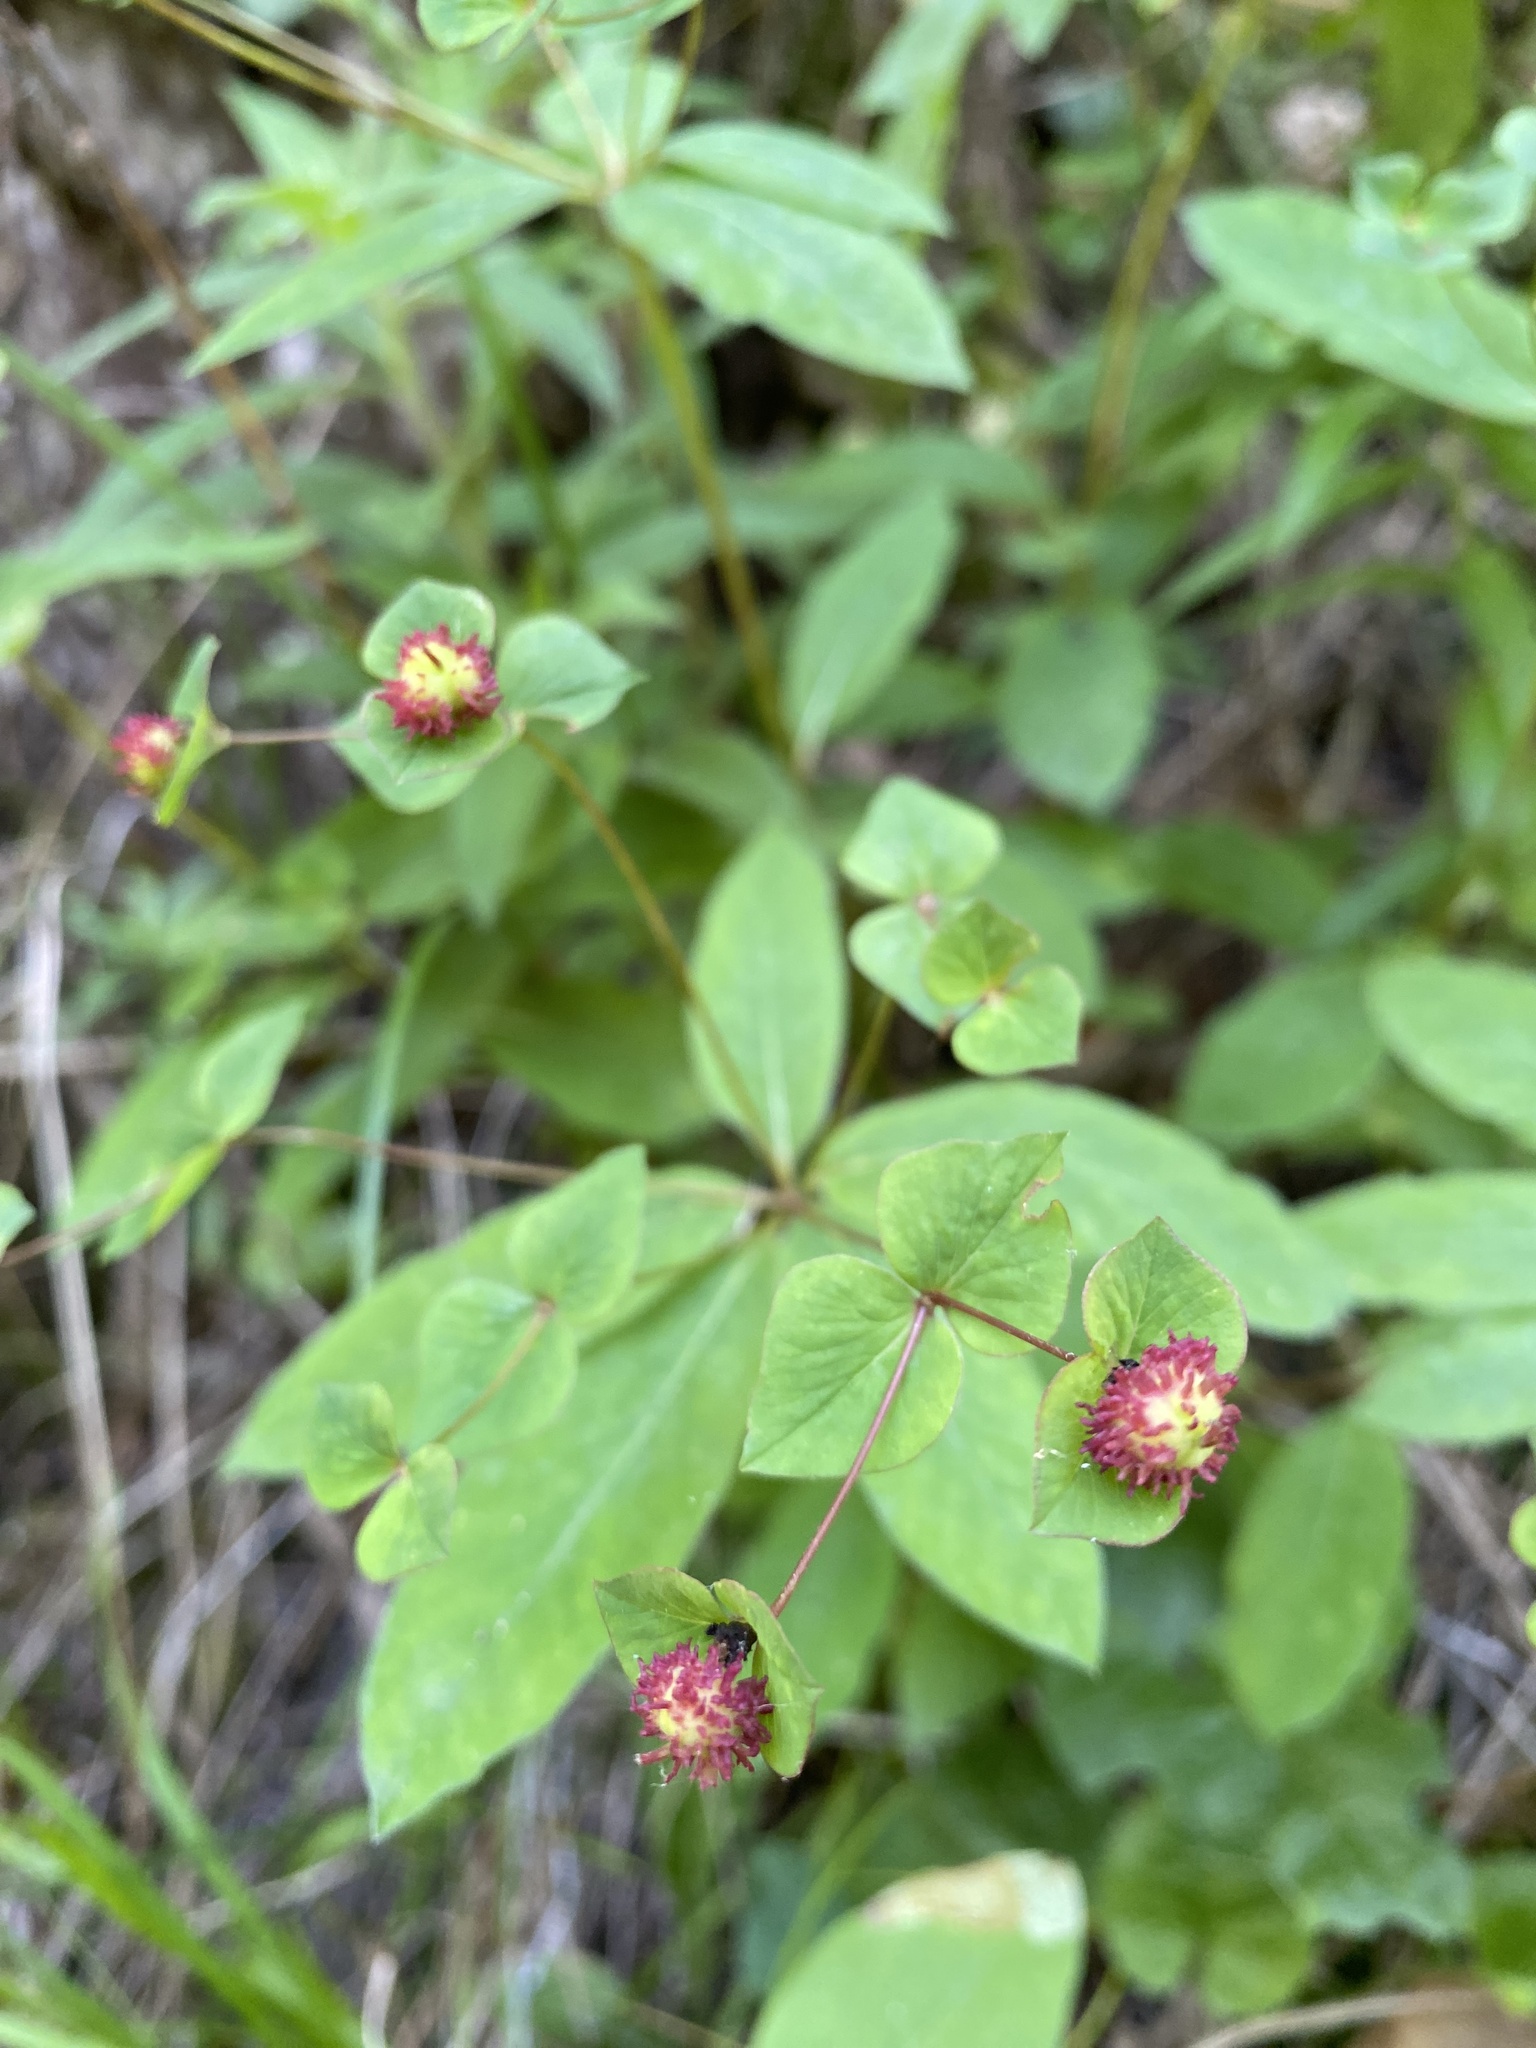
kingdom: Plantae
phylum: Tracheophyta
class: Magnoliopsida
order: Malpighiales
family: Euphorbiaceae
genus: Euphorbia
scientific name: Euphorbia squamosa
